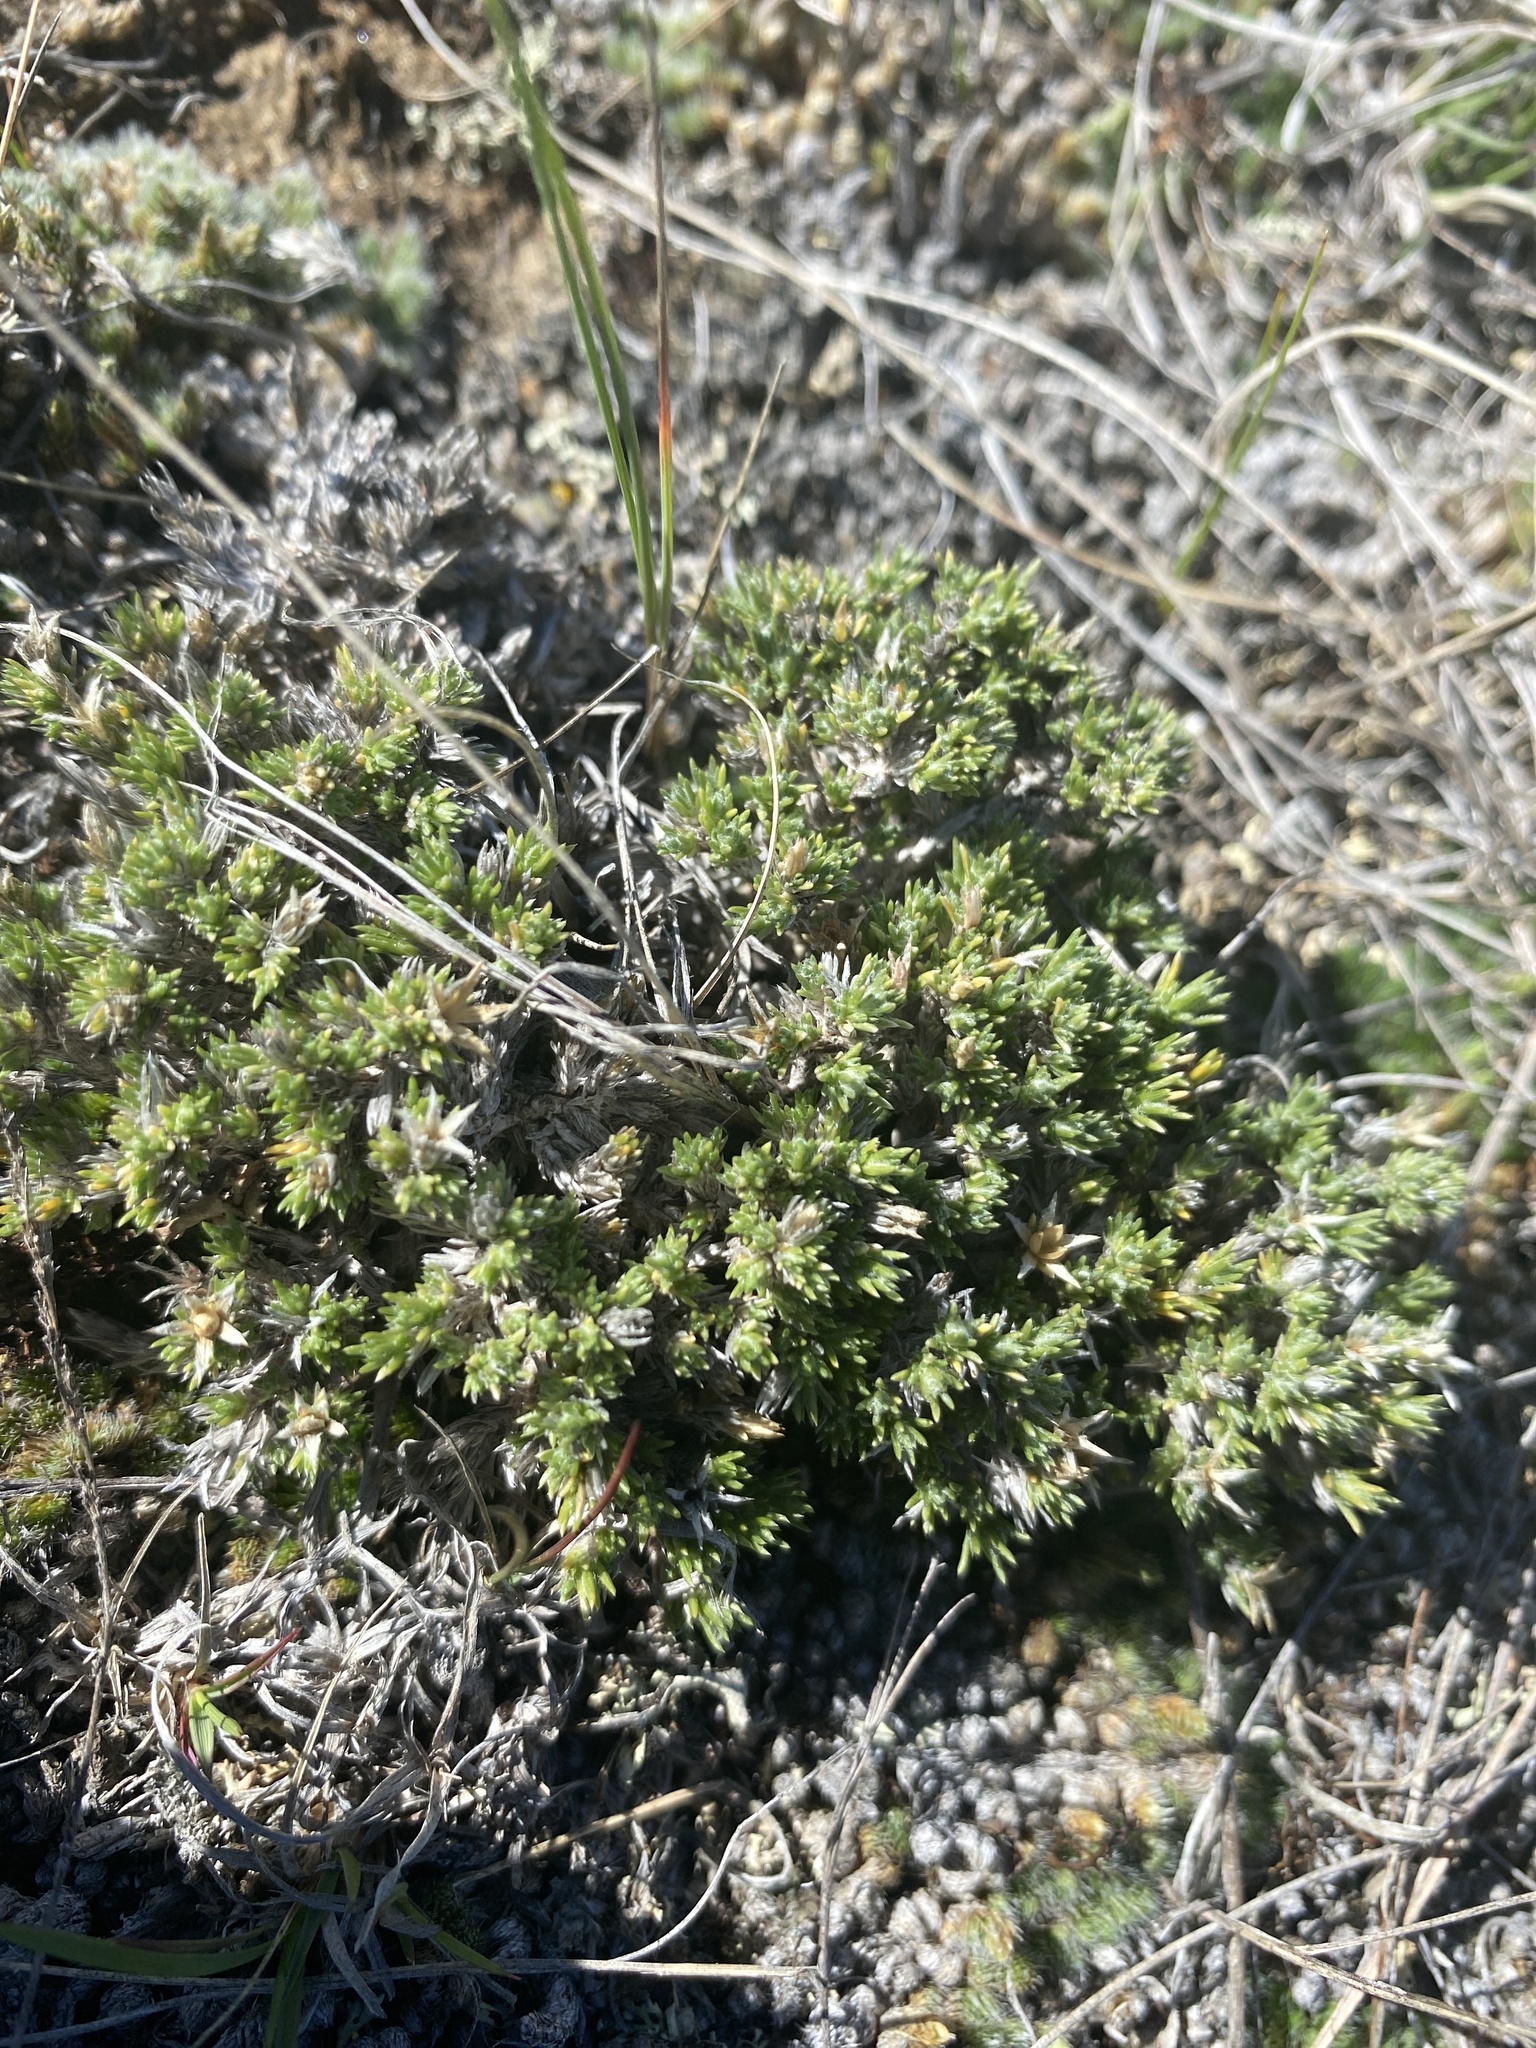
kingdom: Plantae
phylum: Tracheophyta
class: Magnoliopsida
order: Ericales
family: Polemoniaceae
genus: Phlox
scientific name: Phlox hoodii
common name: Moss phlox
